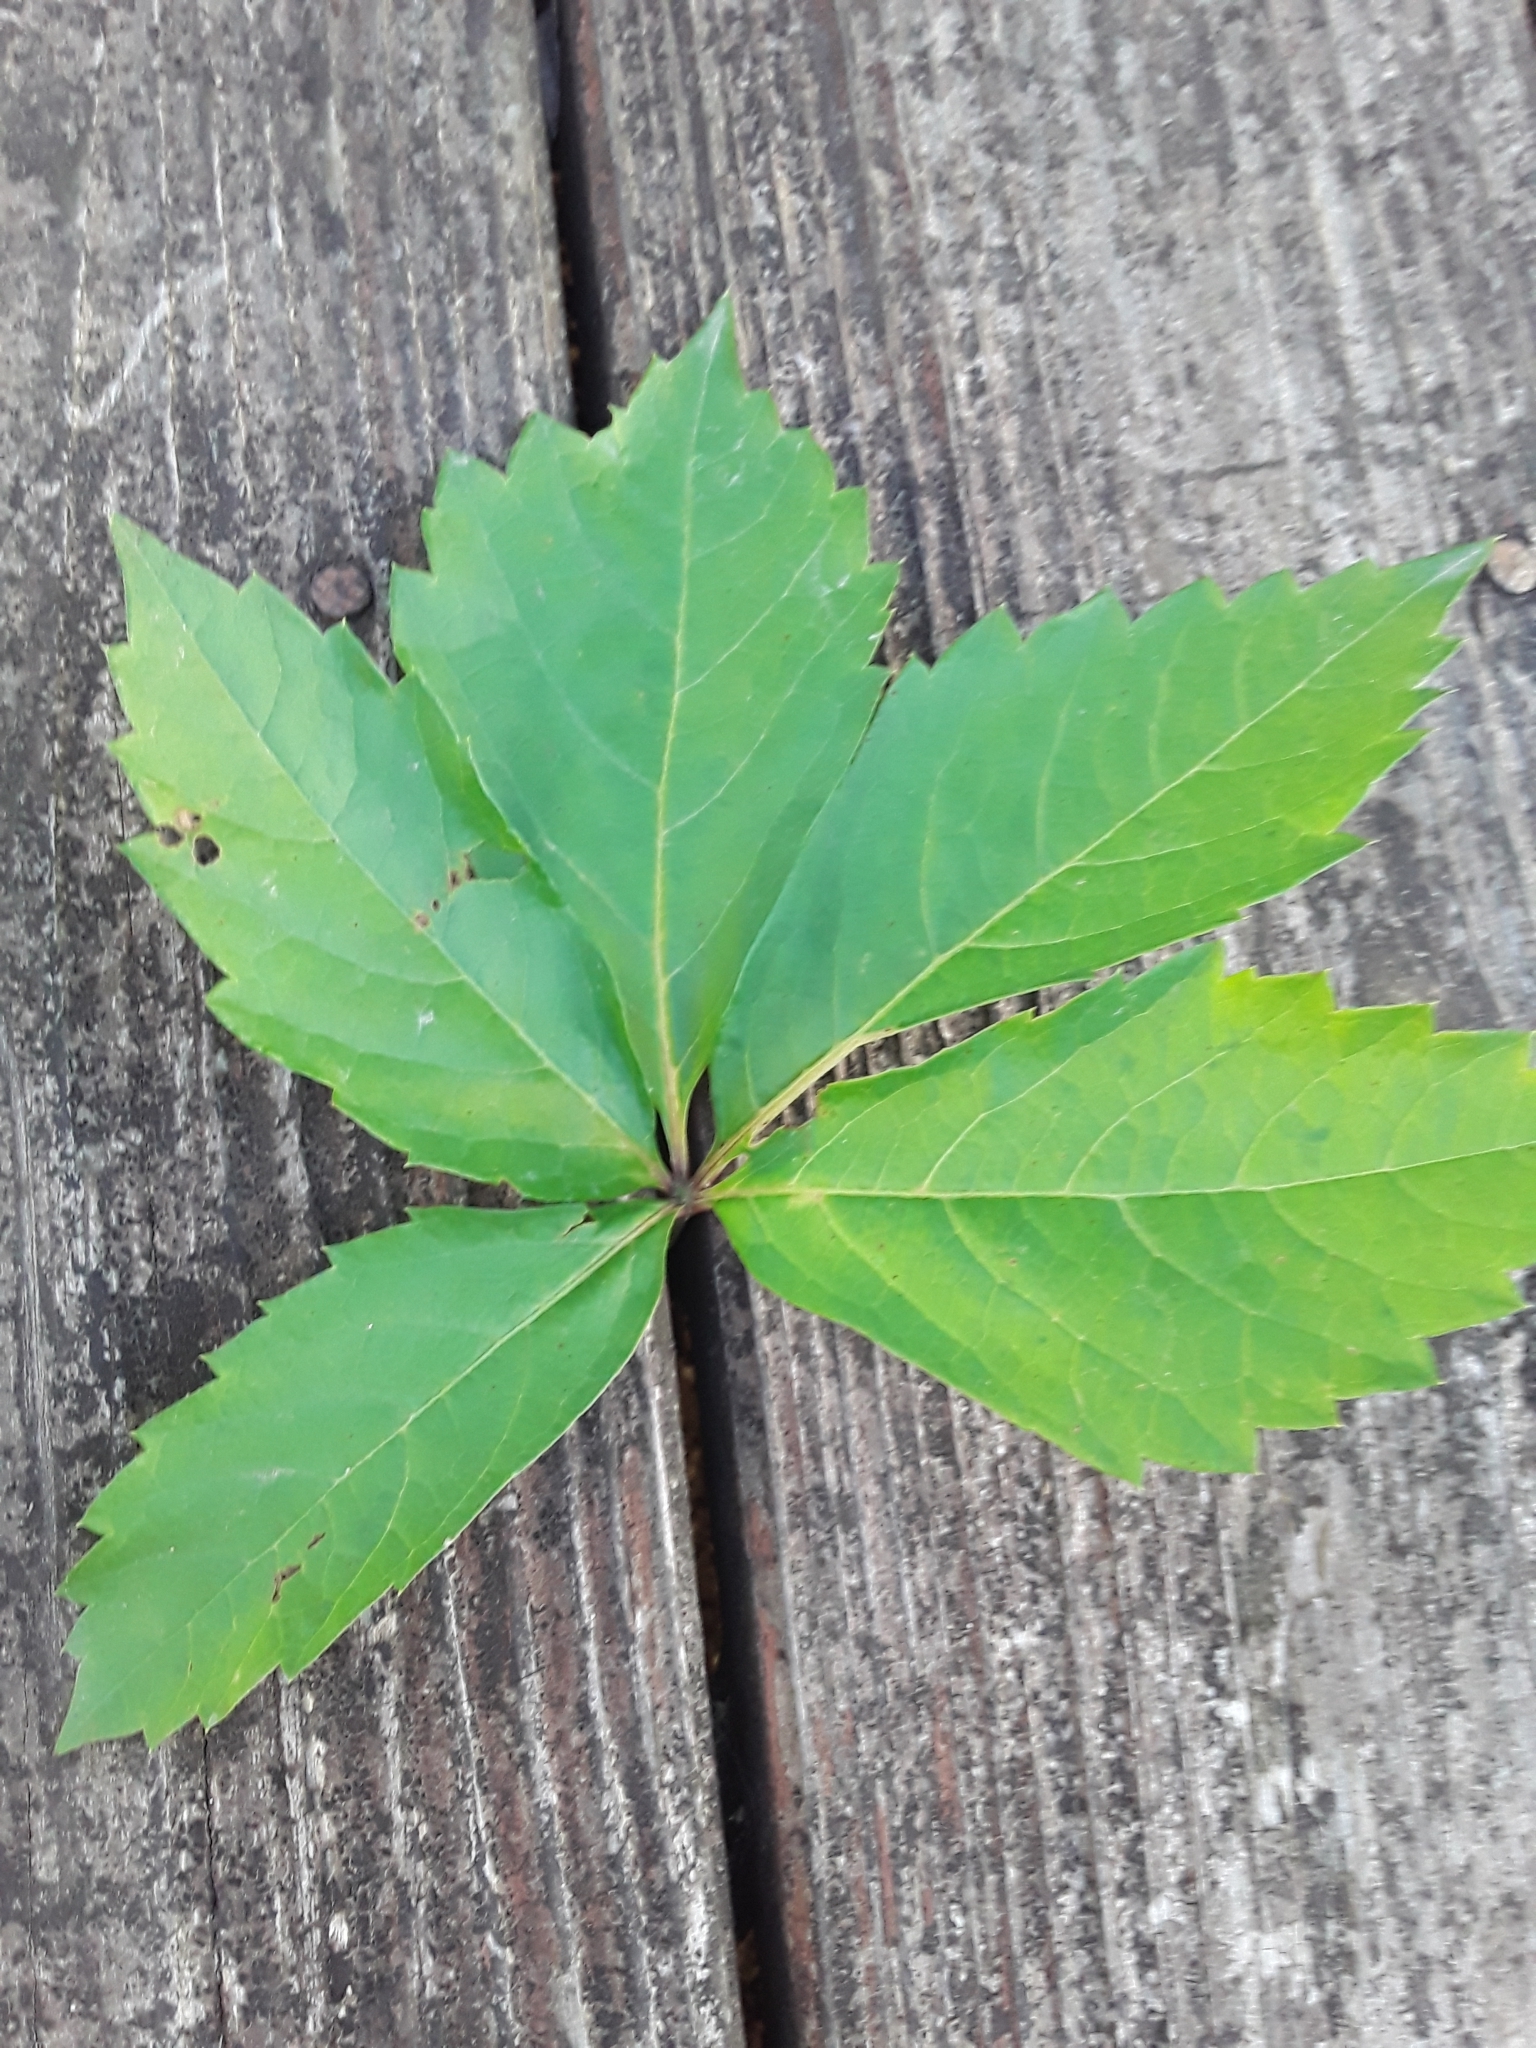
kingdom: Plantae
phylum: Tracheophyta
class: Magnoliopsida
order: Vitales
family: Vitaceae
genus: Parthenocissus
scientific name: Parthenocissus quinquefolia
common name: Virginia-creeper
